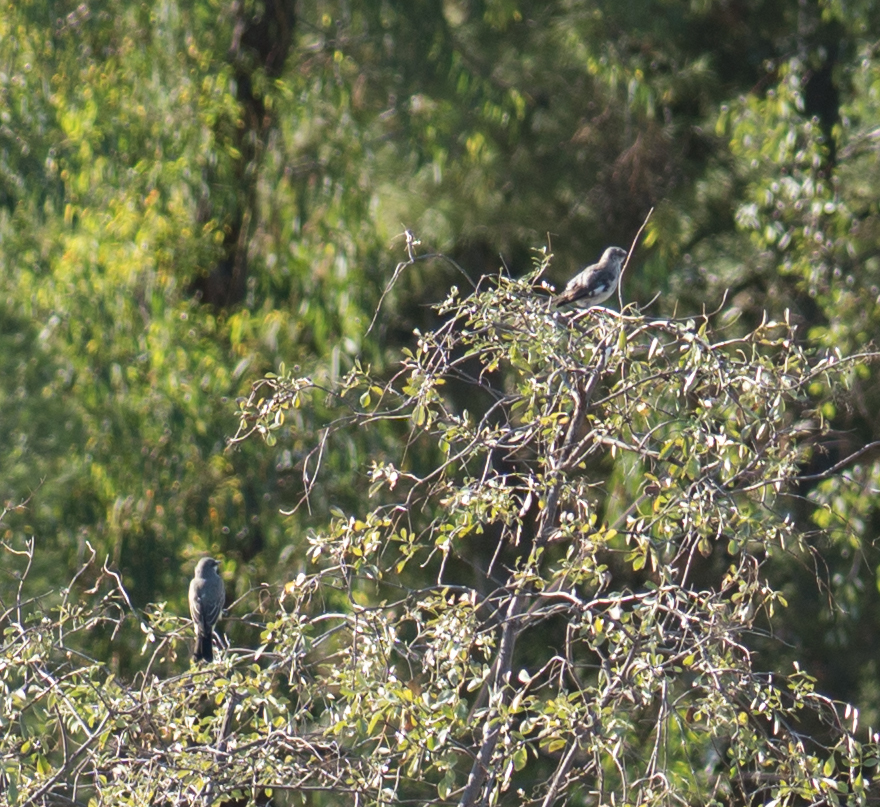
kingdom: Animalia
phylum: Chordata
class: Aves
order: Passeriformes
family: Mimidae
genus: Mimus
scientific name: Mimus polyglottos
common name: Northern mockingbird
